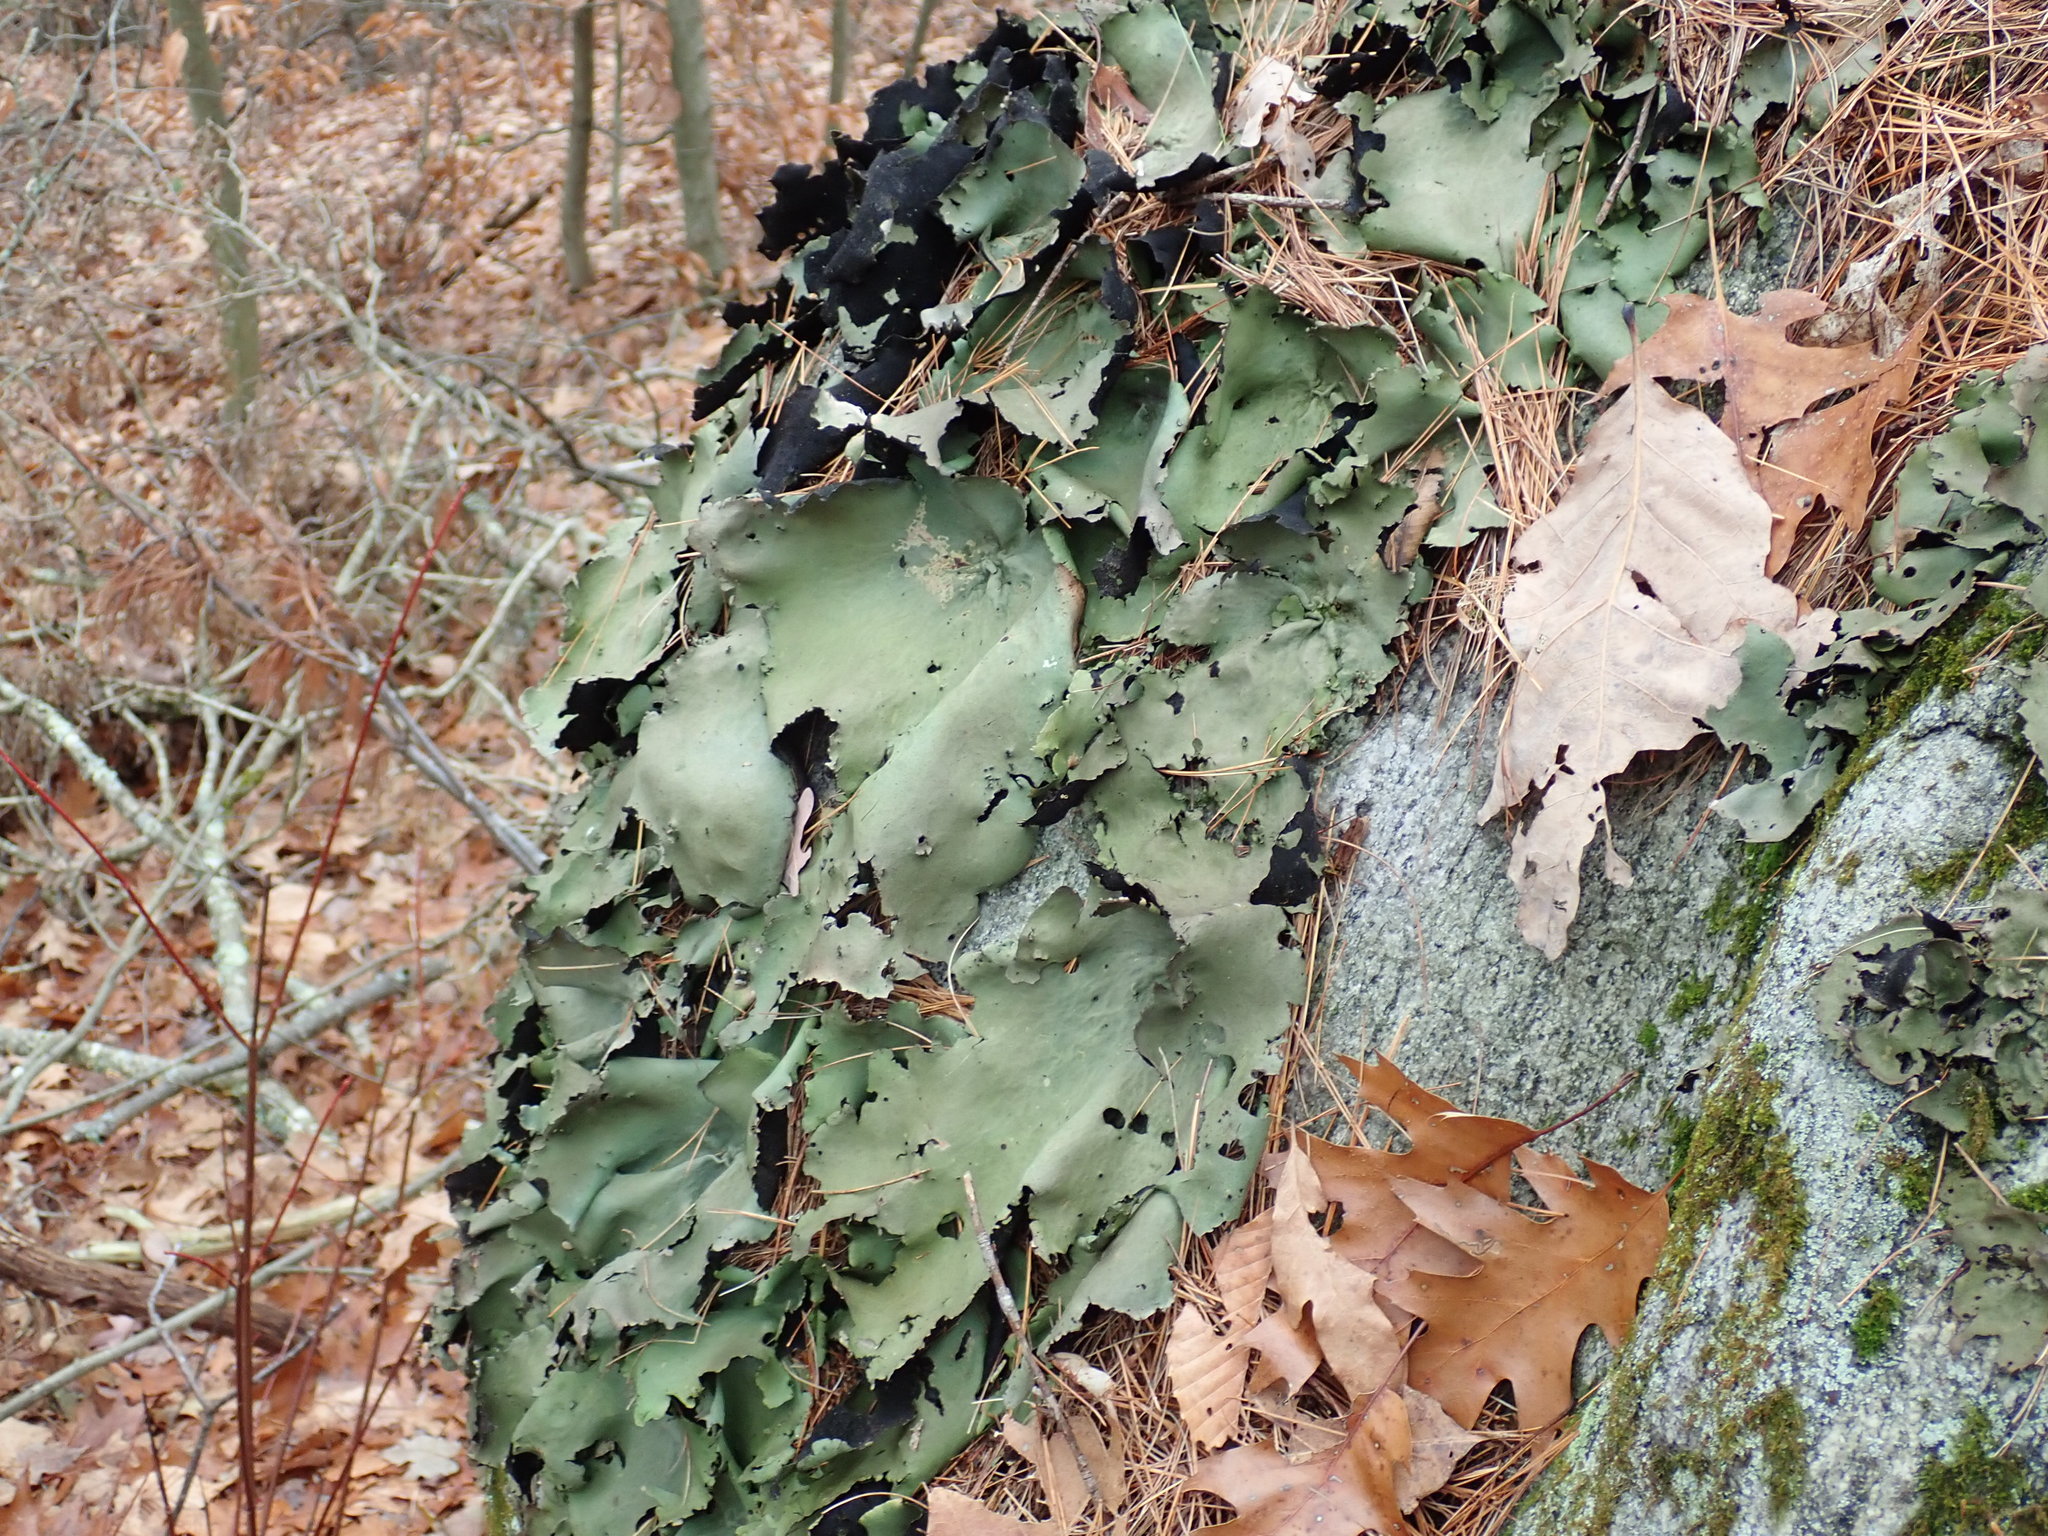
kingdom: Fungi
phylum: Ascomycota
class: Lecanoromycetes
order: Umbilicariales
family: Umbilicariaceae
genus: Umbilicaria
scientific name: Umbilicaria mammulata
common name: Smooth rock tripe
